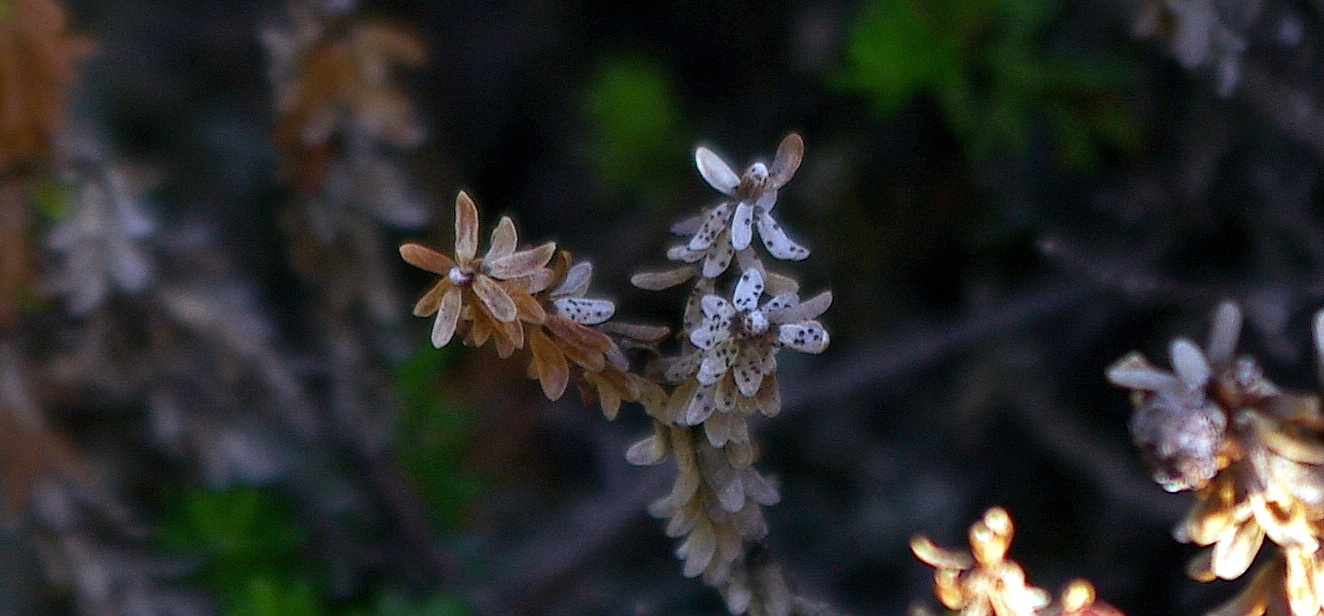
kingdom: Plantae
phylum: Tracheophyta
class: Magnoliopsida
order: Ericales
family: Ericaceae
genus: Empetrum
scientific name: Empetrum nigrum
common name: Black crowberry
